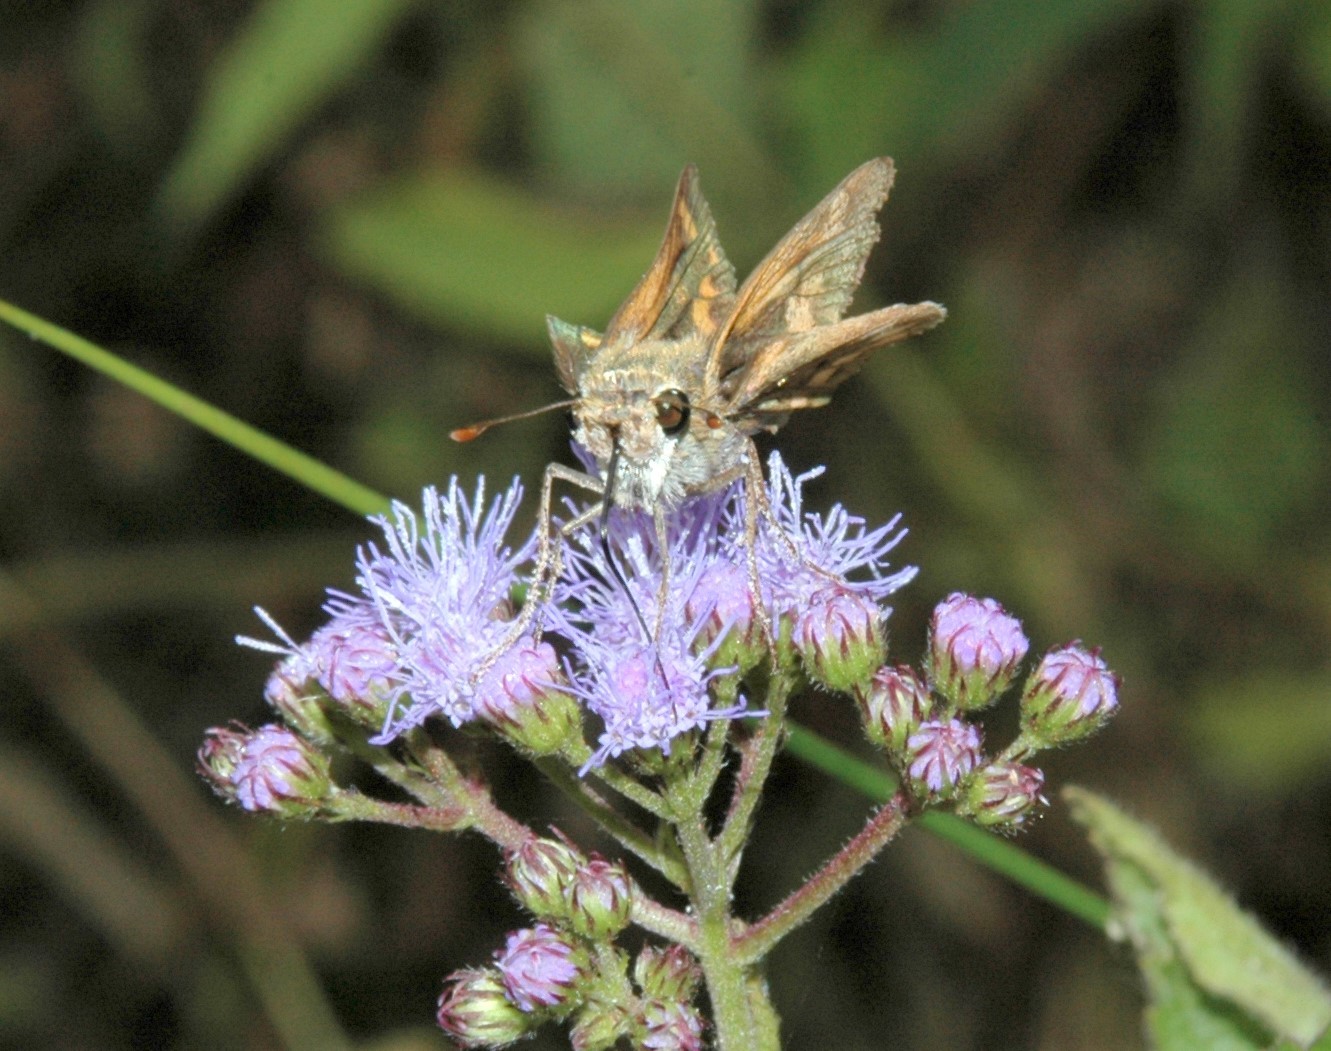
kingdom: Animalia
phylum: Arthropoda
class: Insecta
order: Lepidoptera
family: Hesperiidae
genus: Hylephila
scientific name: Hylephila phyleus
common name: Fiery skipper
